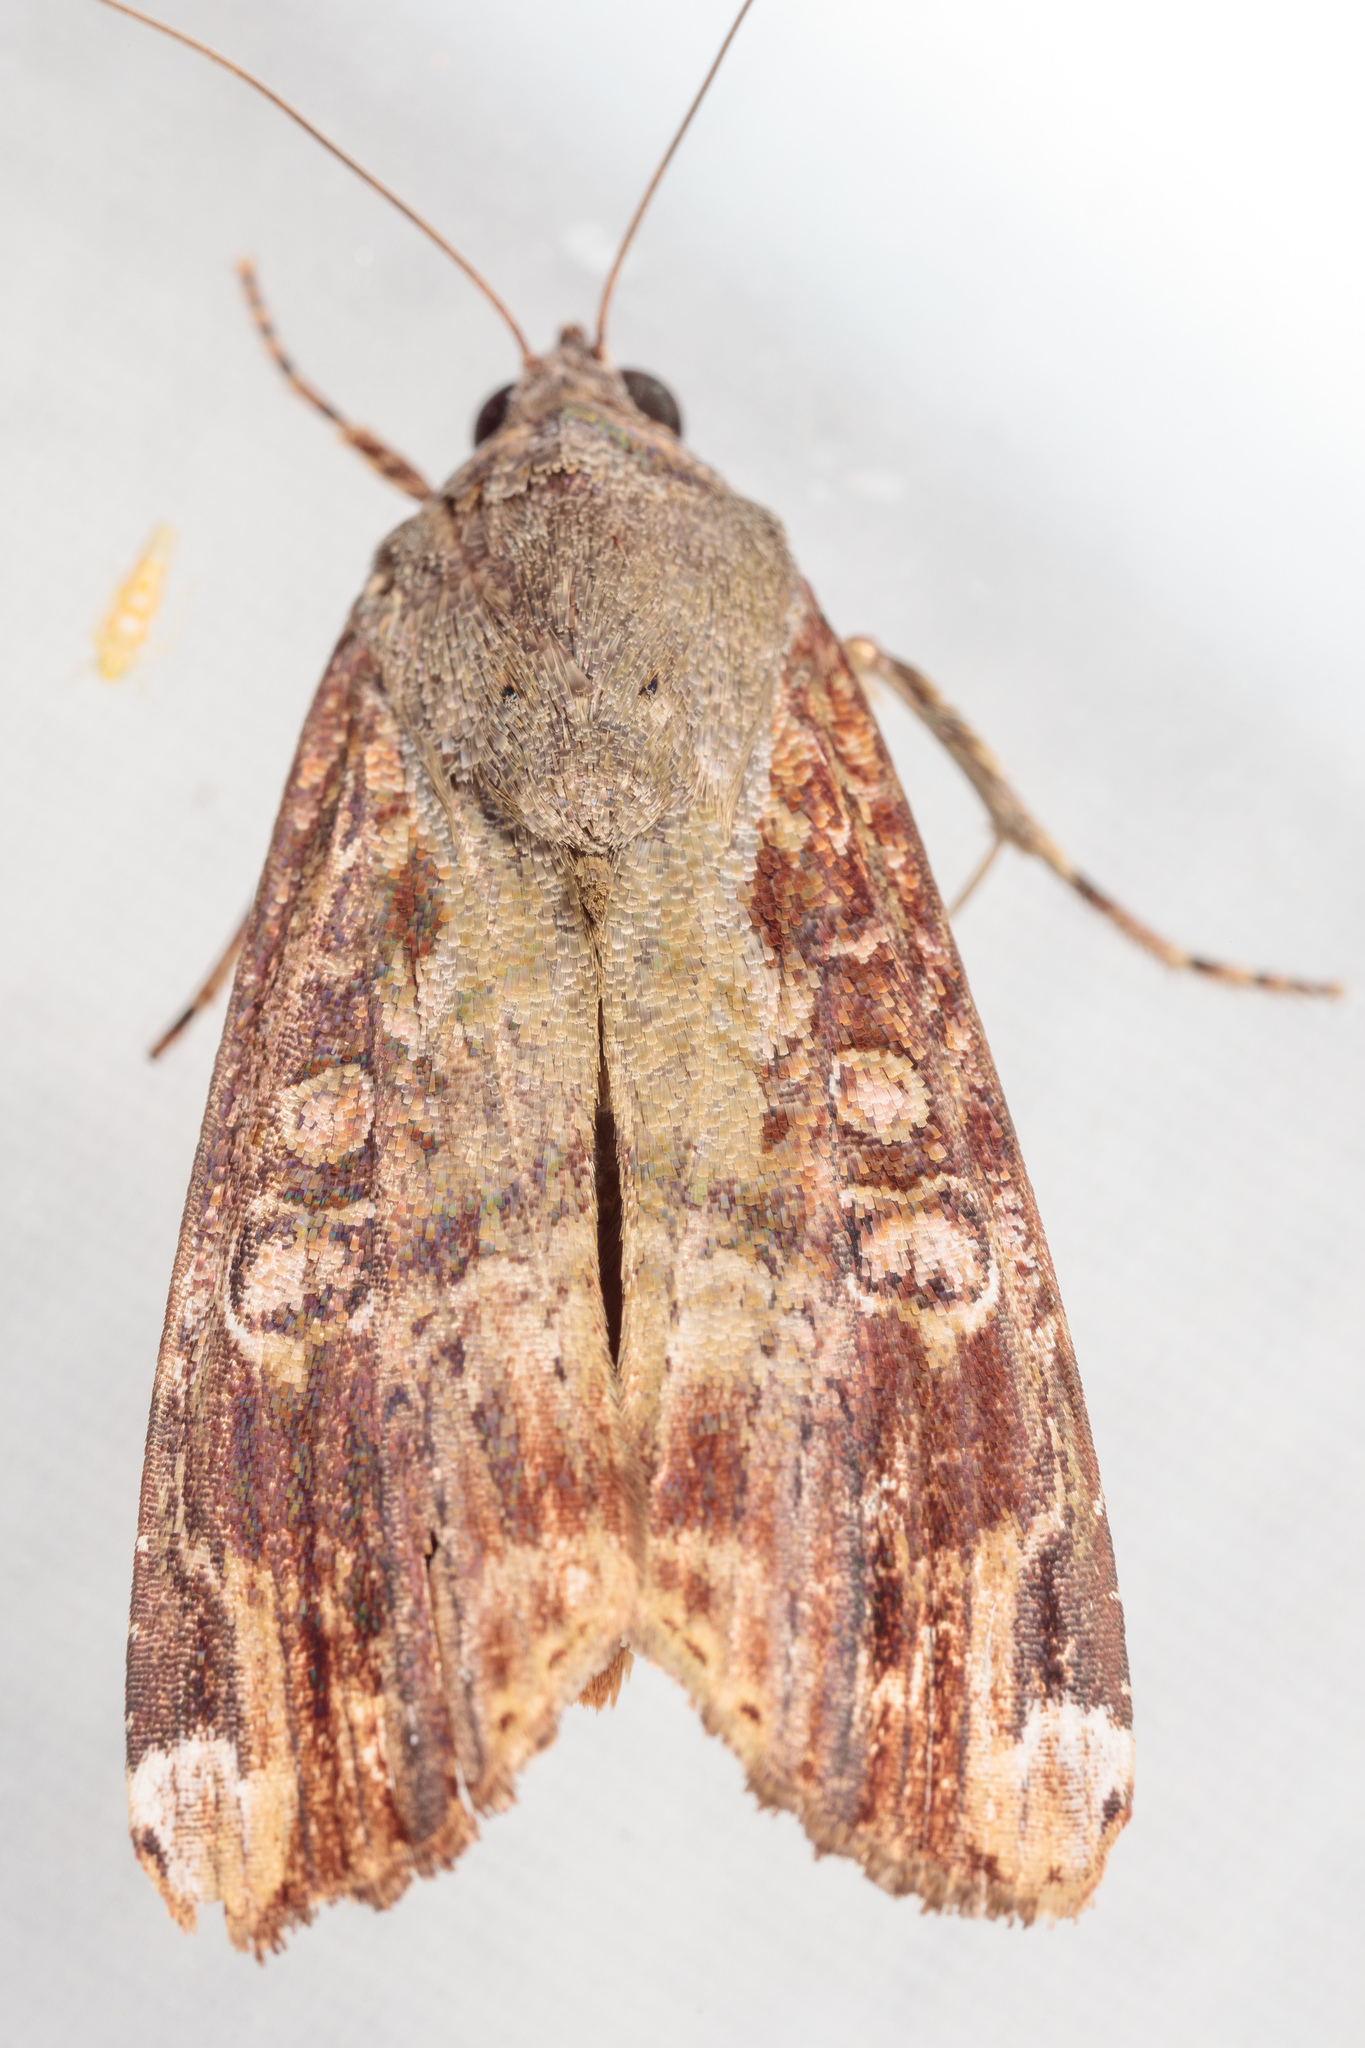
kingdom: Animalia
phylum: Arthropoda
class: Insecta
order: Lepidoptera
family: Noctuidae
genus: Magusa
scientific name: Magusa divaricata
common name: Orb narrow-winged moth
